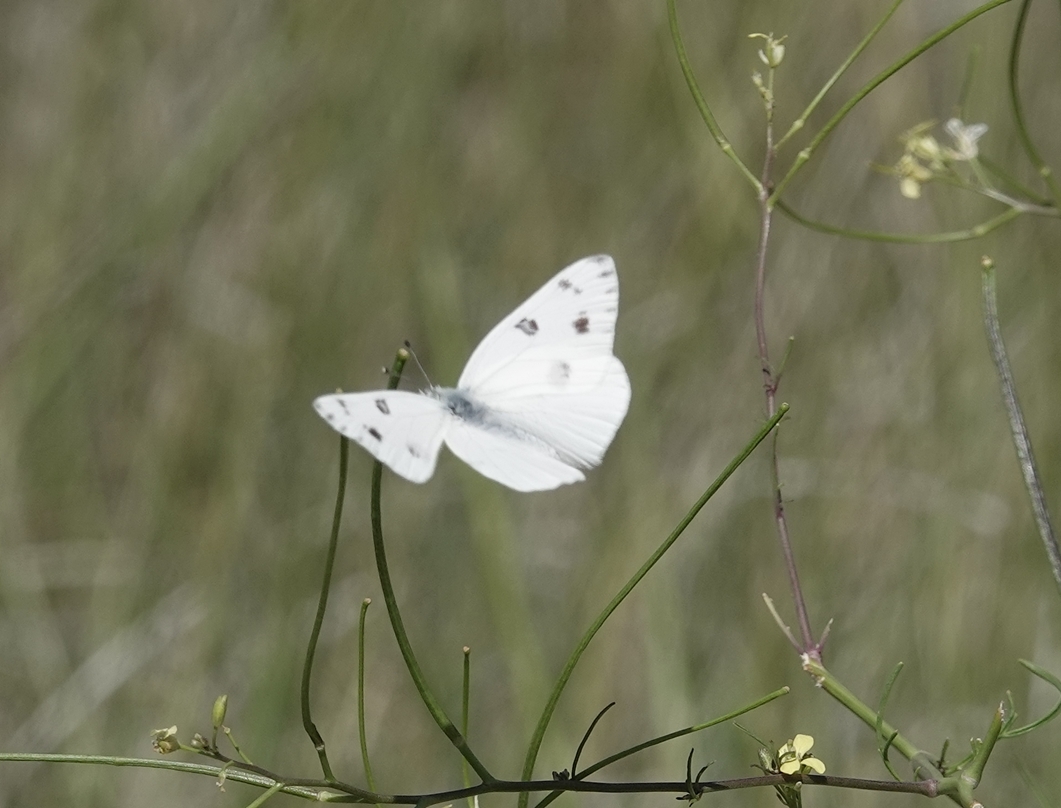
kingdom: Animalia
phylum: Arthropoda
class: Insecta
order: Lepidoptera
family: Pieridae
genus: Pontia
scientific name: Pontia protodice
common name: Checkered white
